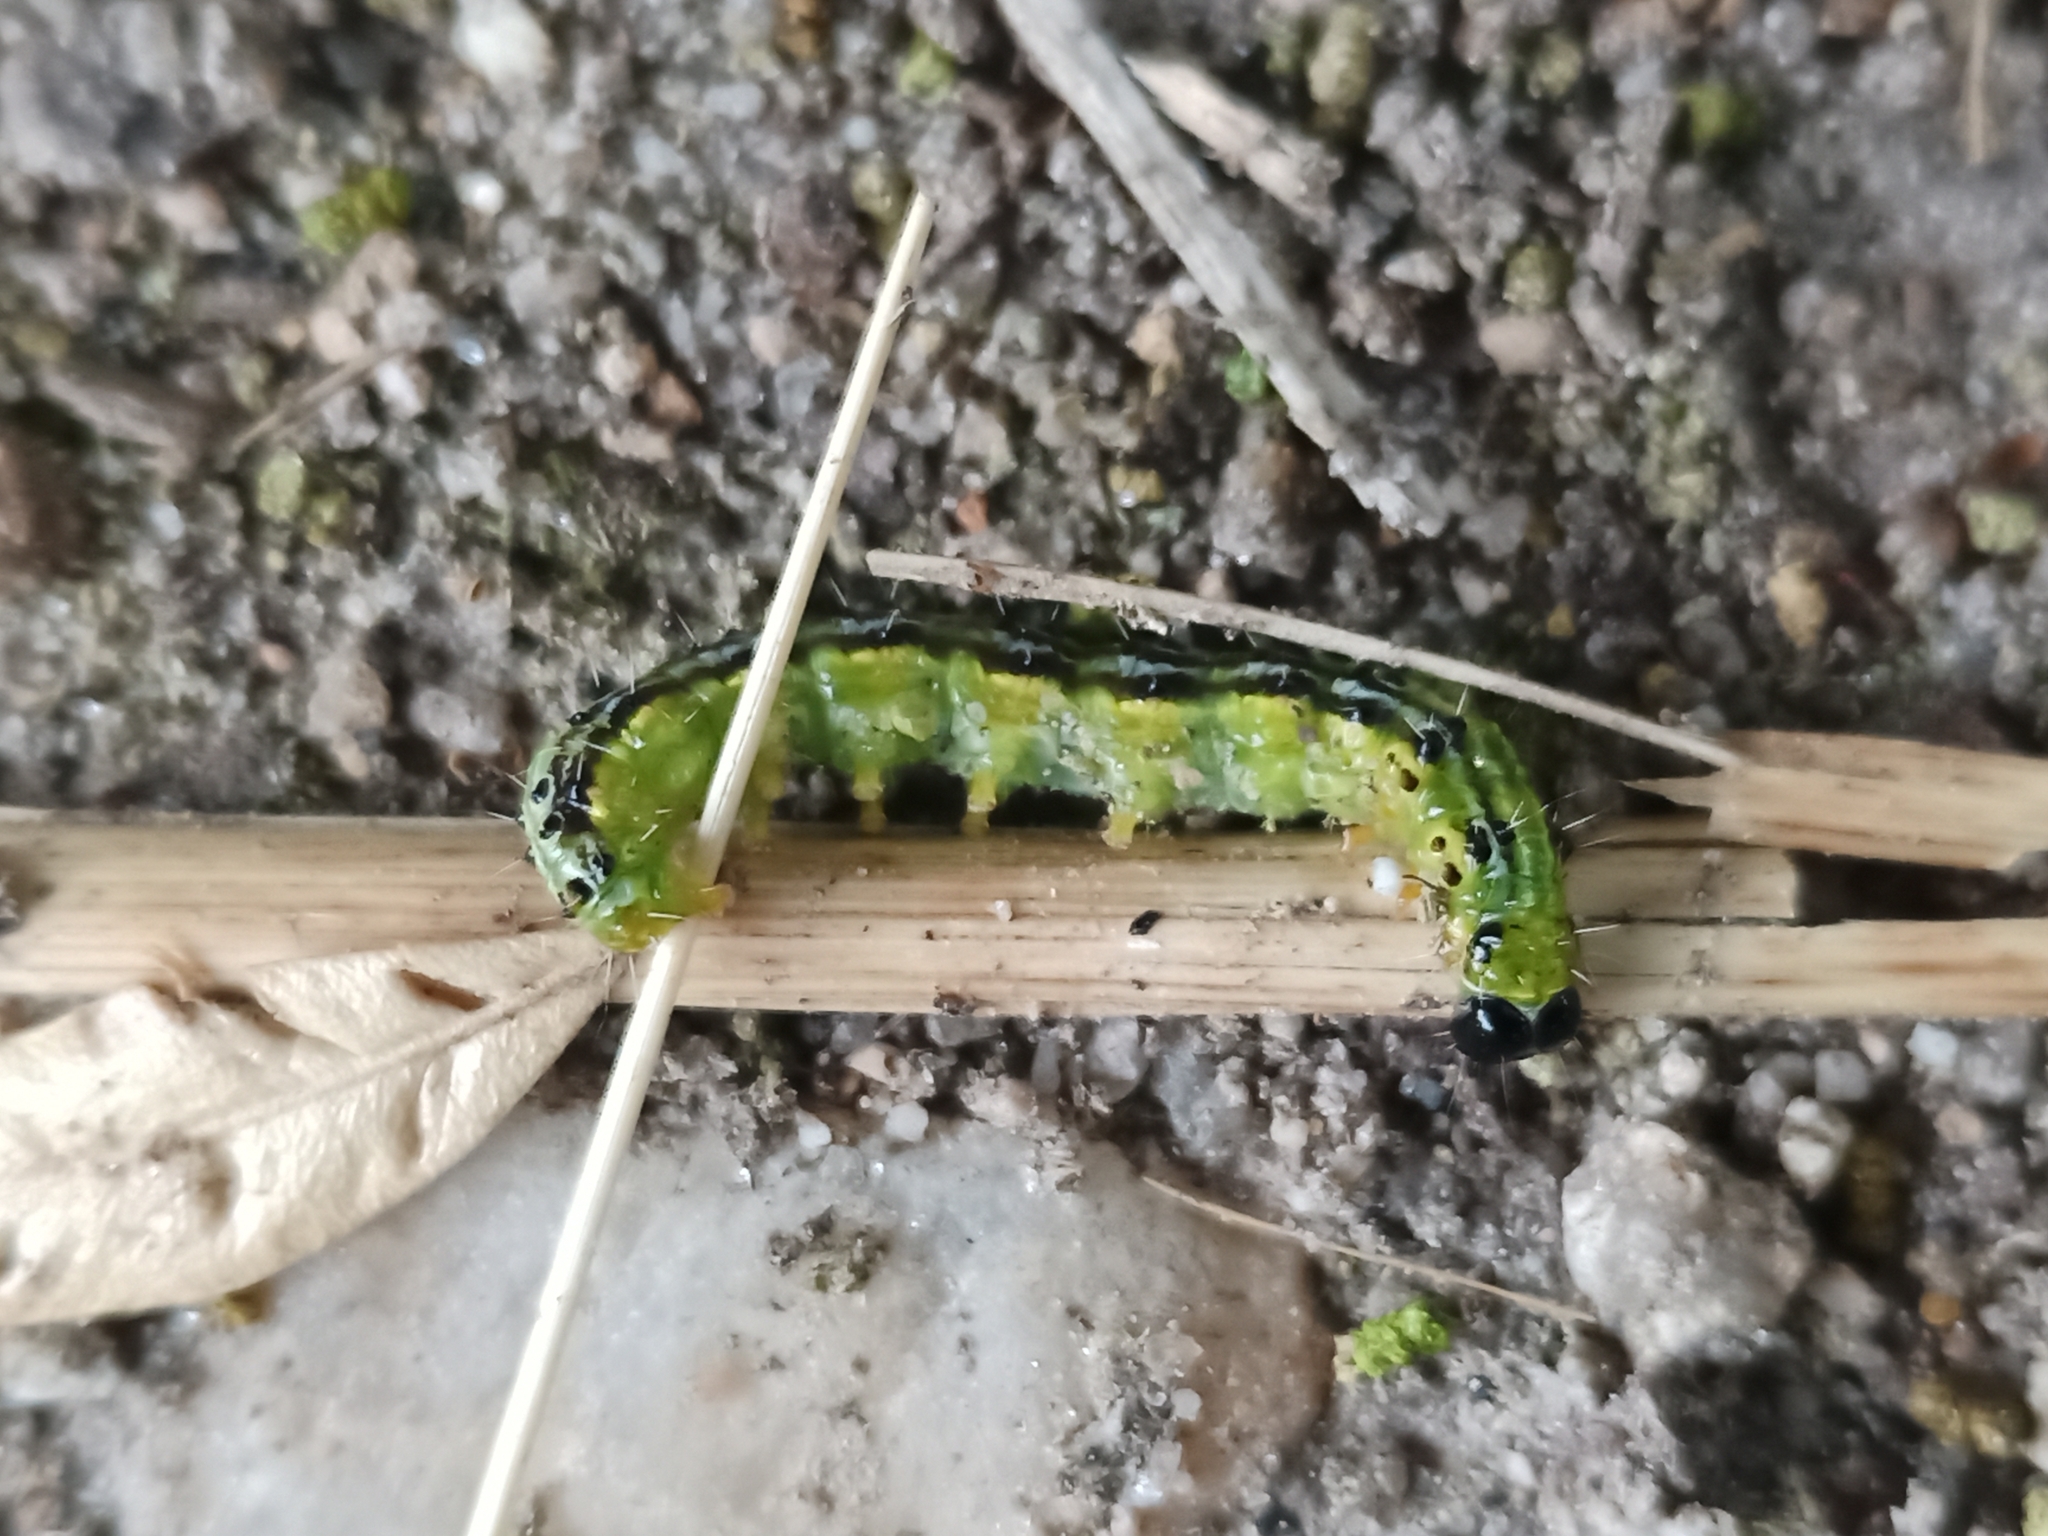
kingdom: Animalia
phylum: Arthropoda
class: Insecta
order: Lepidoptera
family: Crambidae
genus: Cydalima
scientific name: Cydalima perspectalis
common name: Box tree moth
